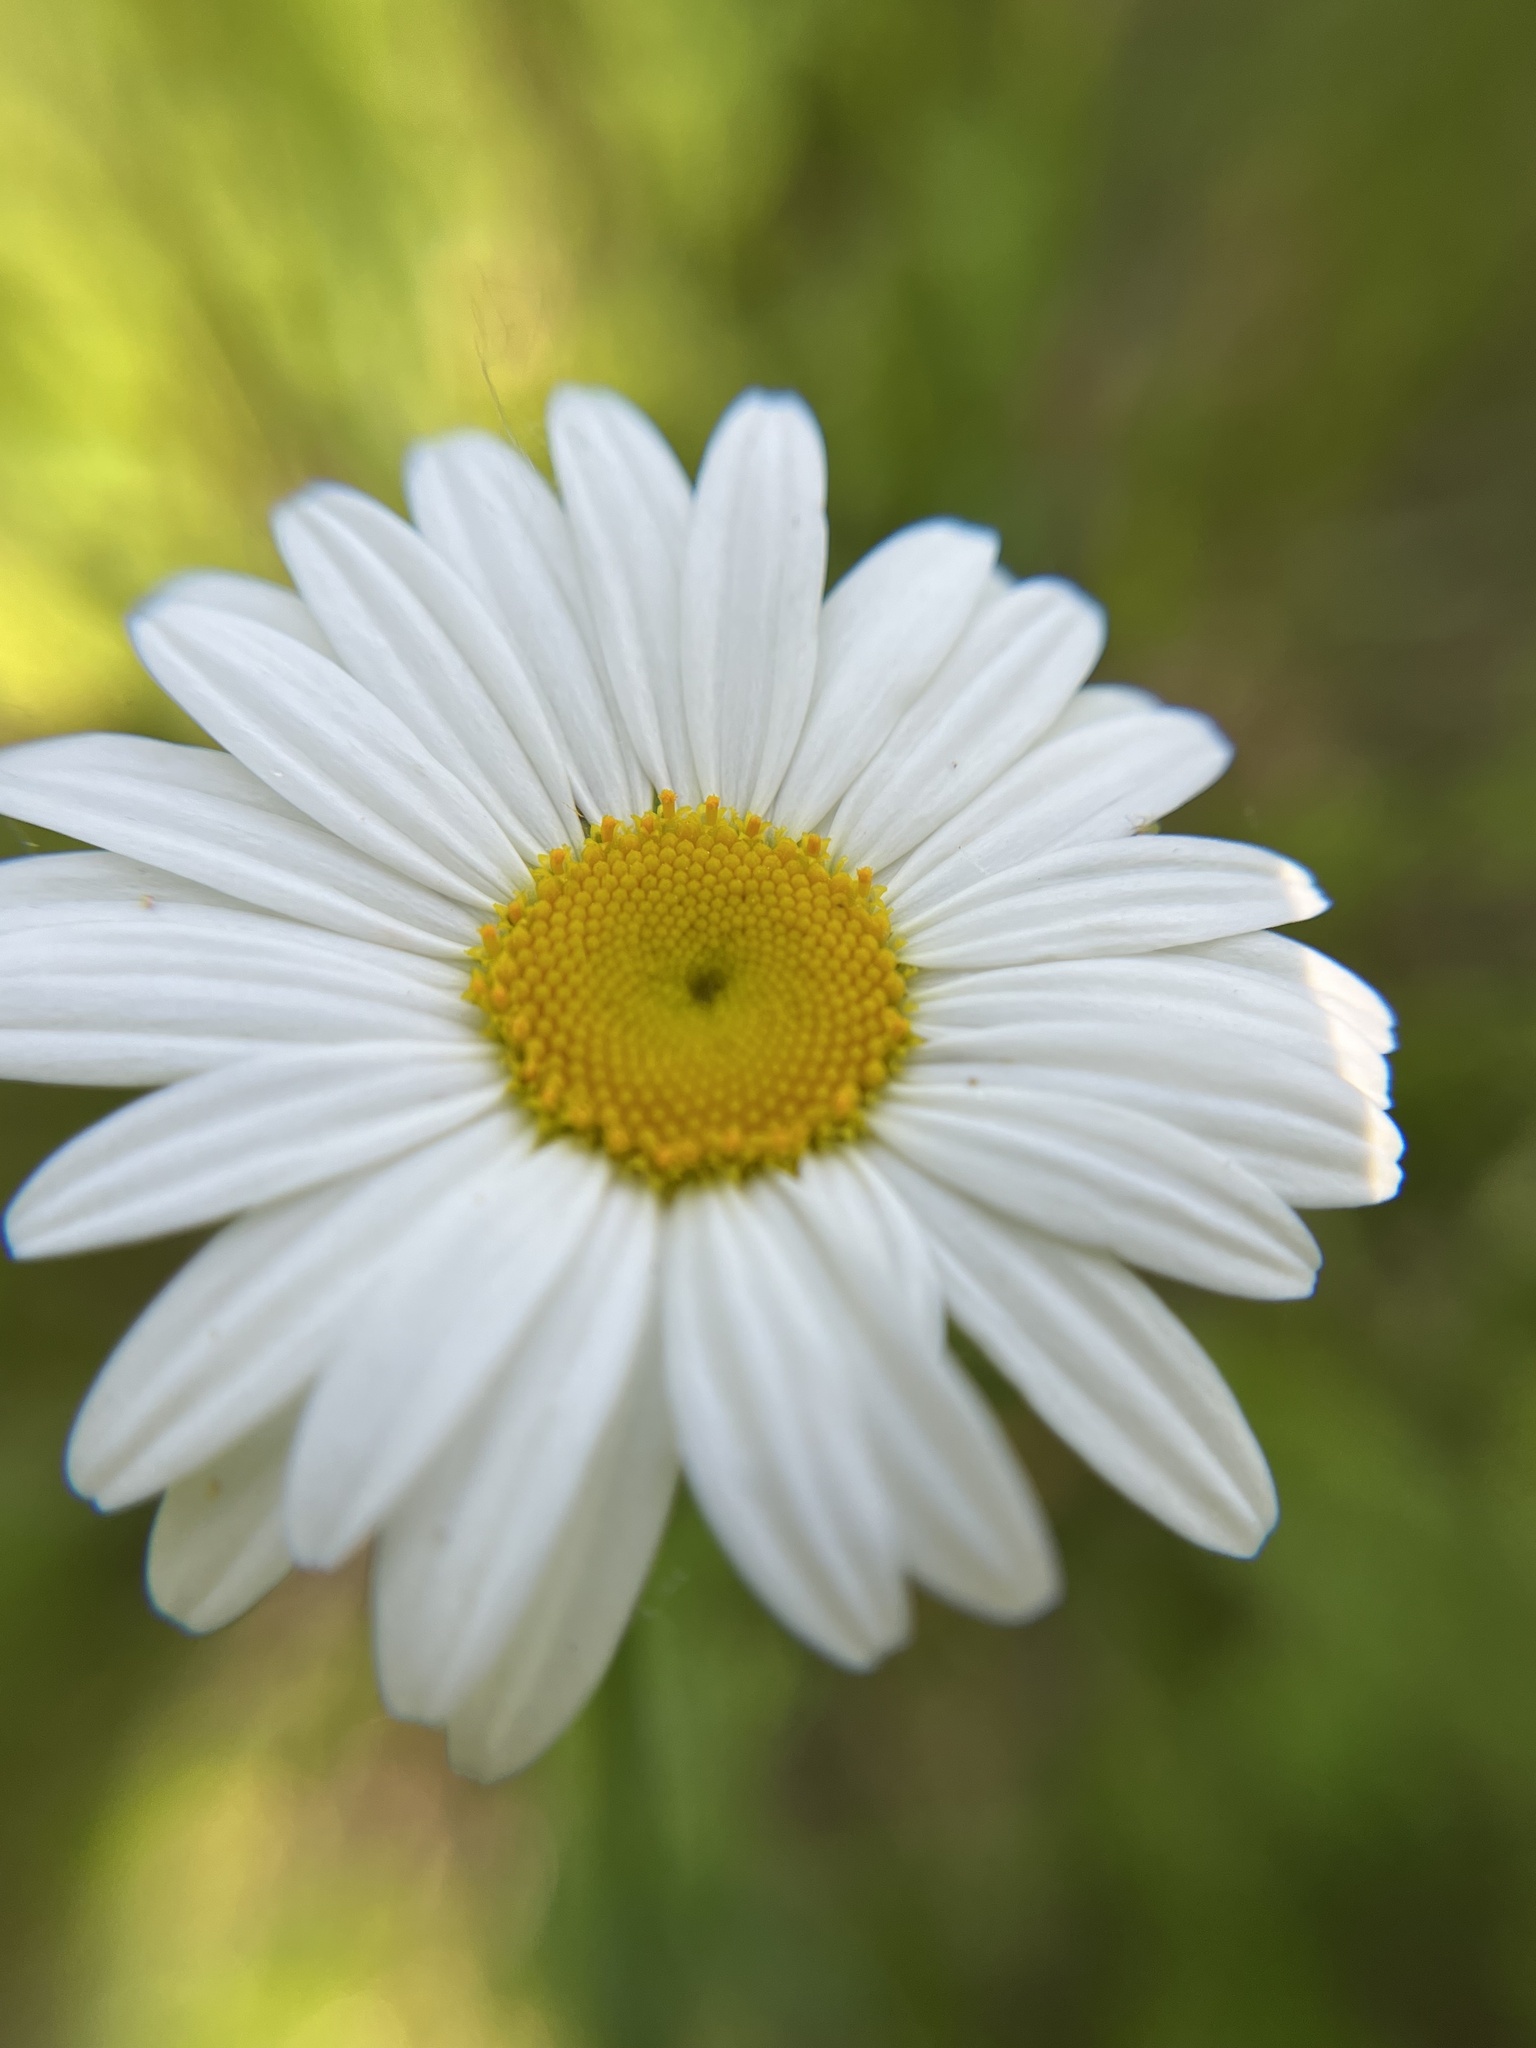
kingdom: Plantae
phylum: Tracheophyta
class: Magnoliopsida
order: Asterales
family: Asteraceae
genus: Leucanthemum
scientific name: Leucanthemum vulgare
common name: Oxeye daisy
